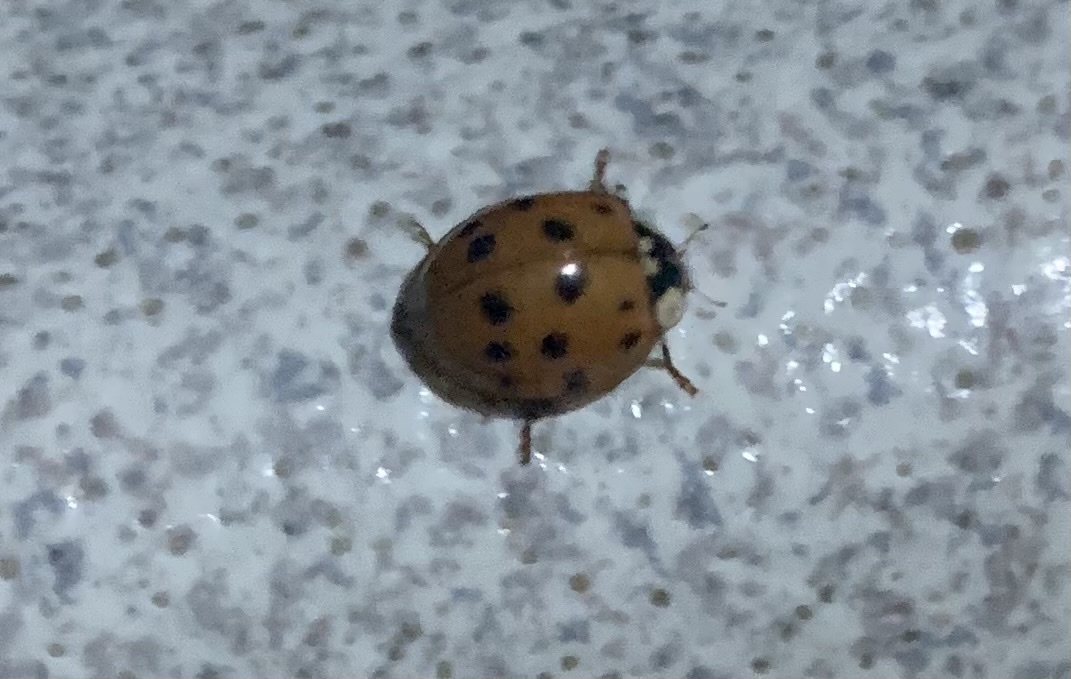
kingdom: Animalia
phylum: Arthropoda
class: Insecta
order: Coleoptera
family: Coccinellidae
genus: Harmonia
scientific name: Harmonia axyridis
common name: Harlequin ladybird
